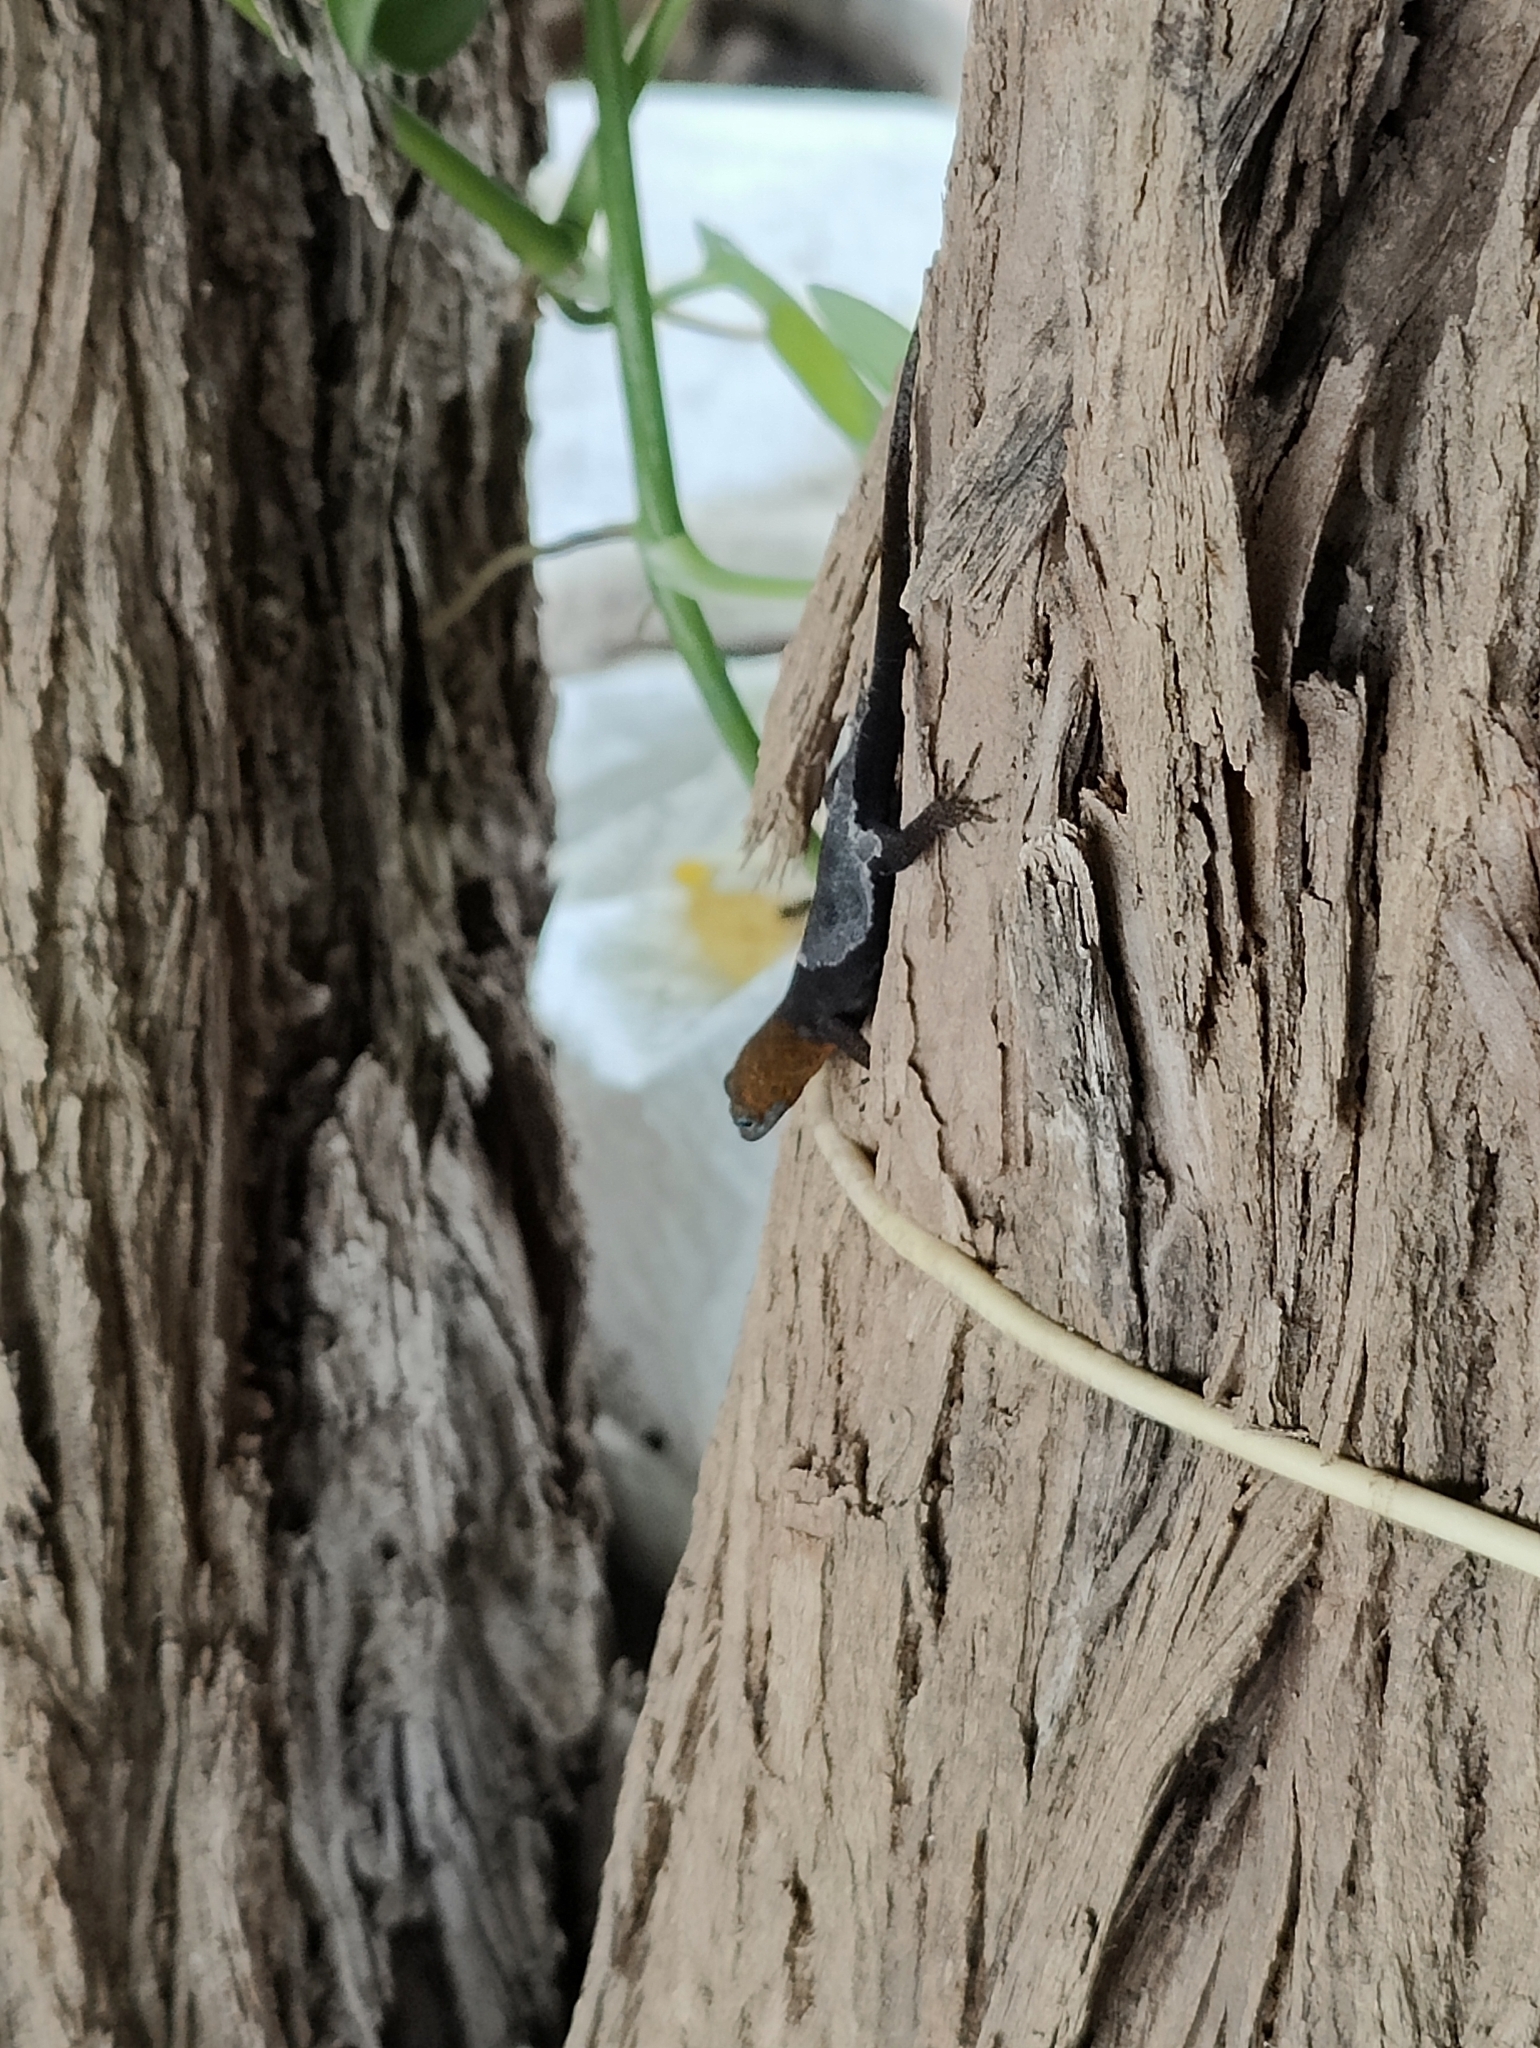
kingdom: Animalia
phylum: Chordata
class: Squamata
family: Sphaerodactylidae
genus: Gonatodes
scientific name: Gonatodes albogularis
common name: Yellow-headed gecko
